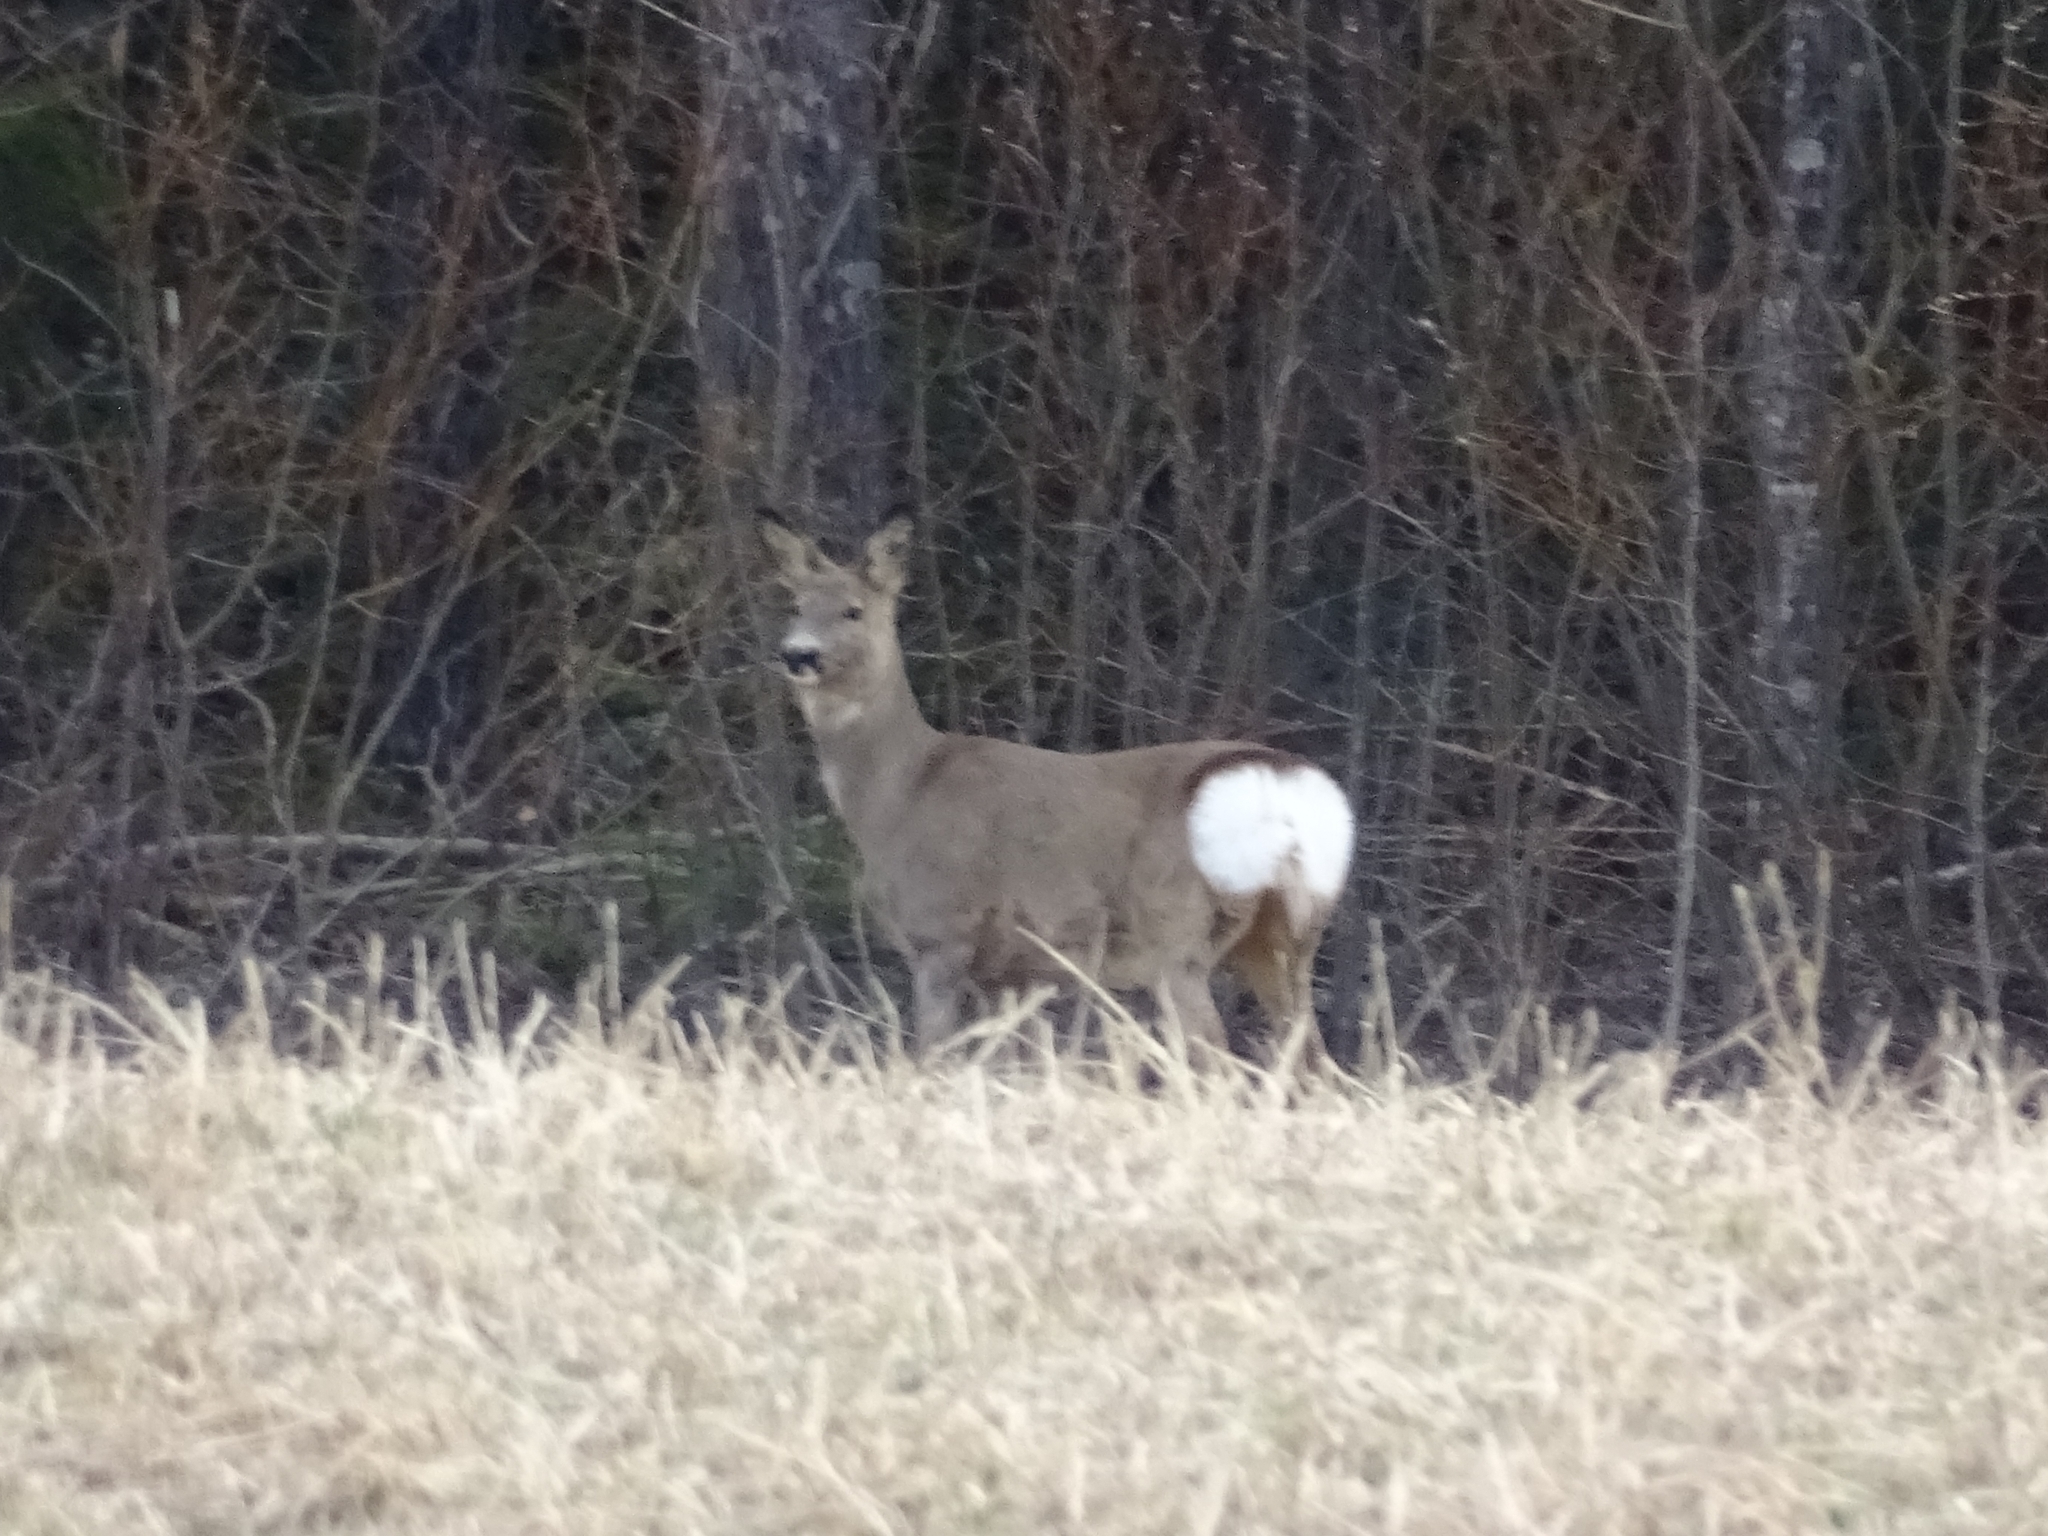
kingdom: Animalia
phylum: Chordata
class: Mammalia
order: Artiodactyla
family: Cervidae
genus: Capreolus
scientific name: Capreolus capreolus
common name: Western roe deer
